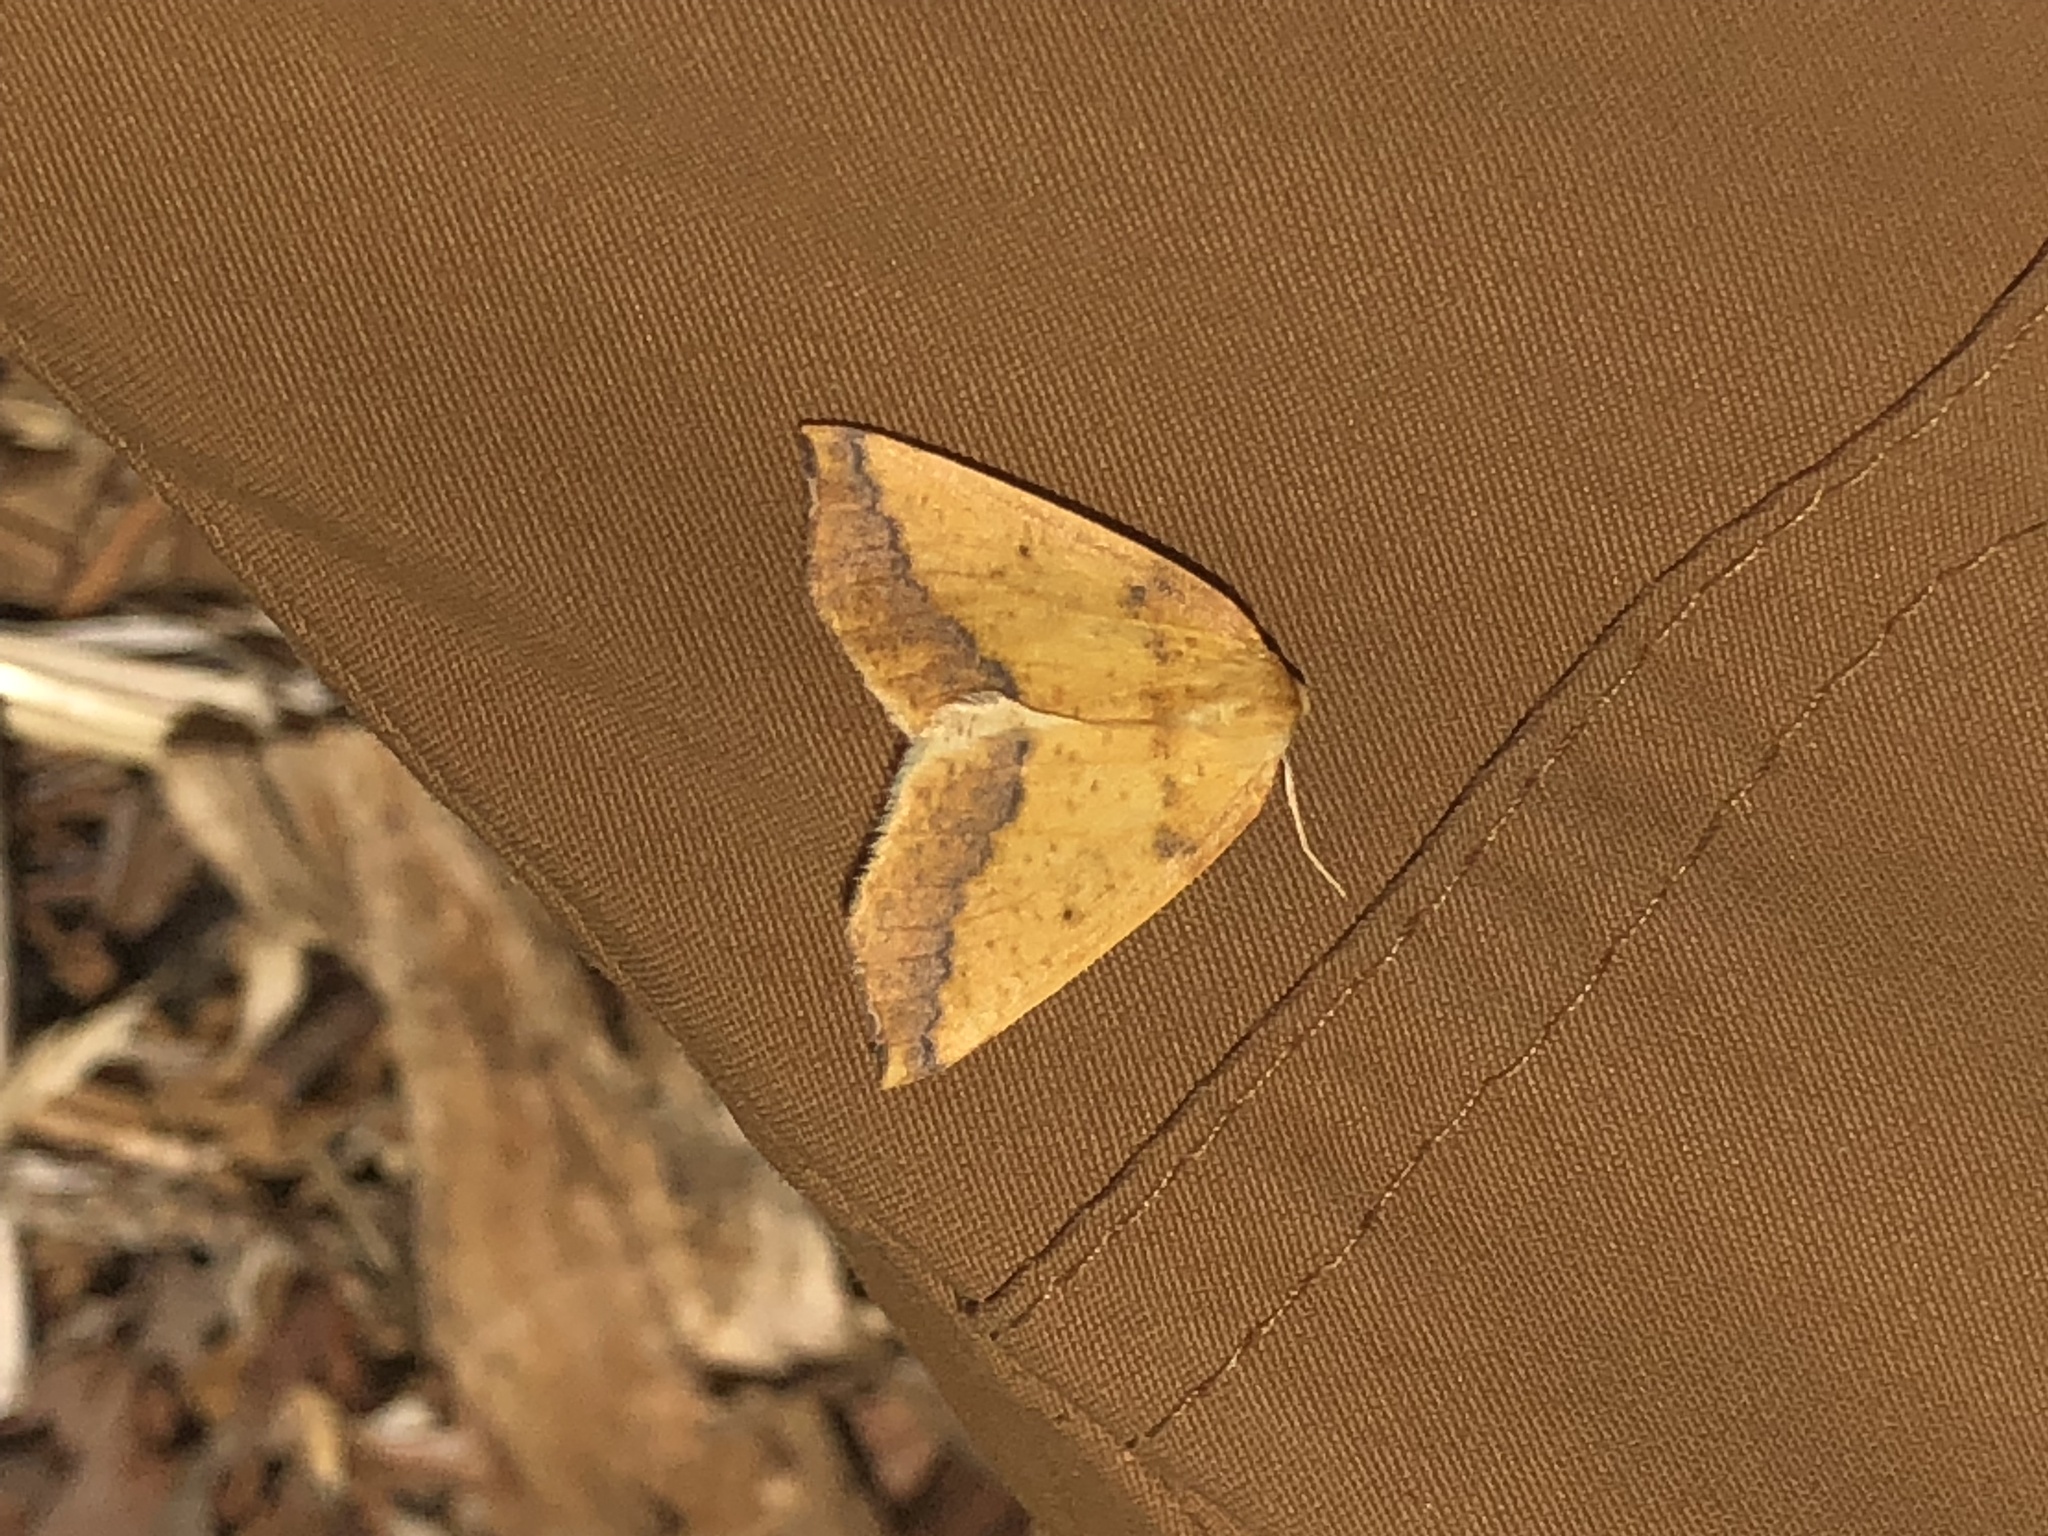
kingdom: Animalia
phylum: Arthropoda
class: Insecta
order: Lepidoptera
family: Geometridae
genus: Neoterpes
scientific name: Neoterpes edwardsata
